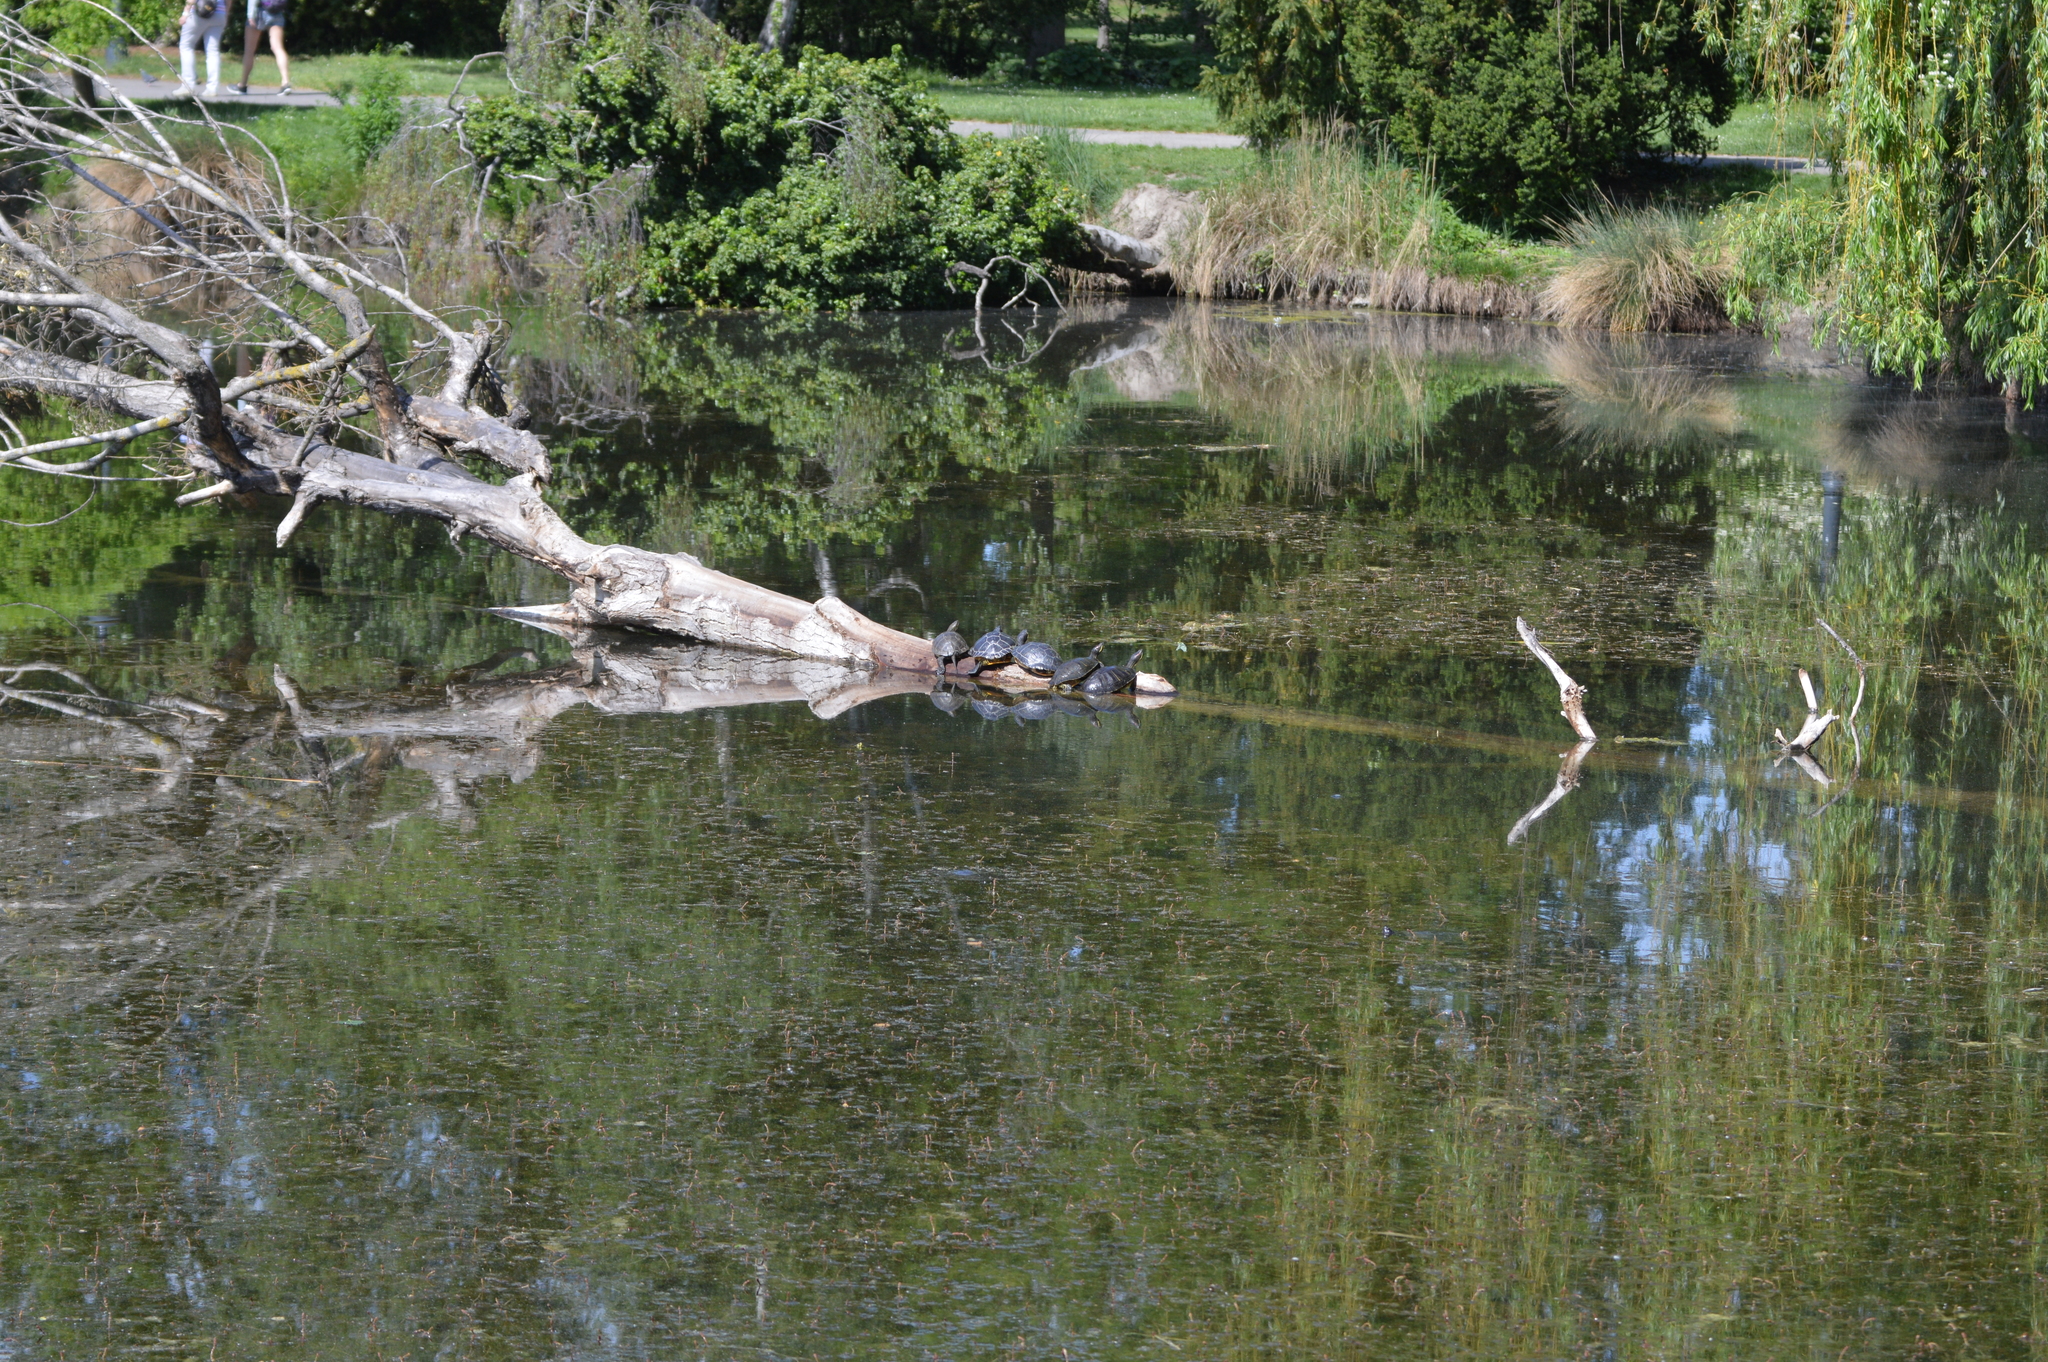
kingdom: Animalia
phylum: Chordata
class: Testudines
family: Emydidae
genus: Trachemys
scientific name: Trachemys scripta
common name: Slider
